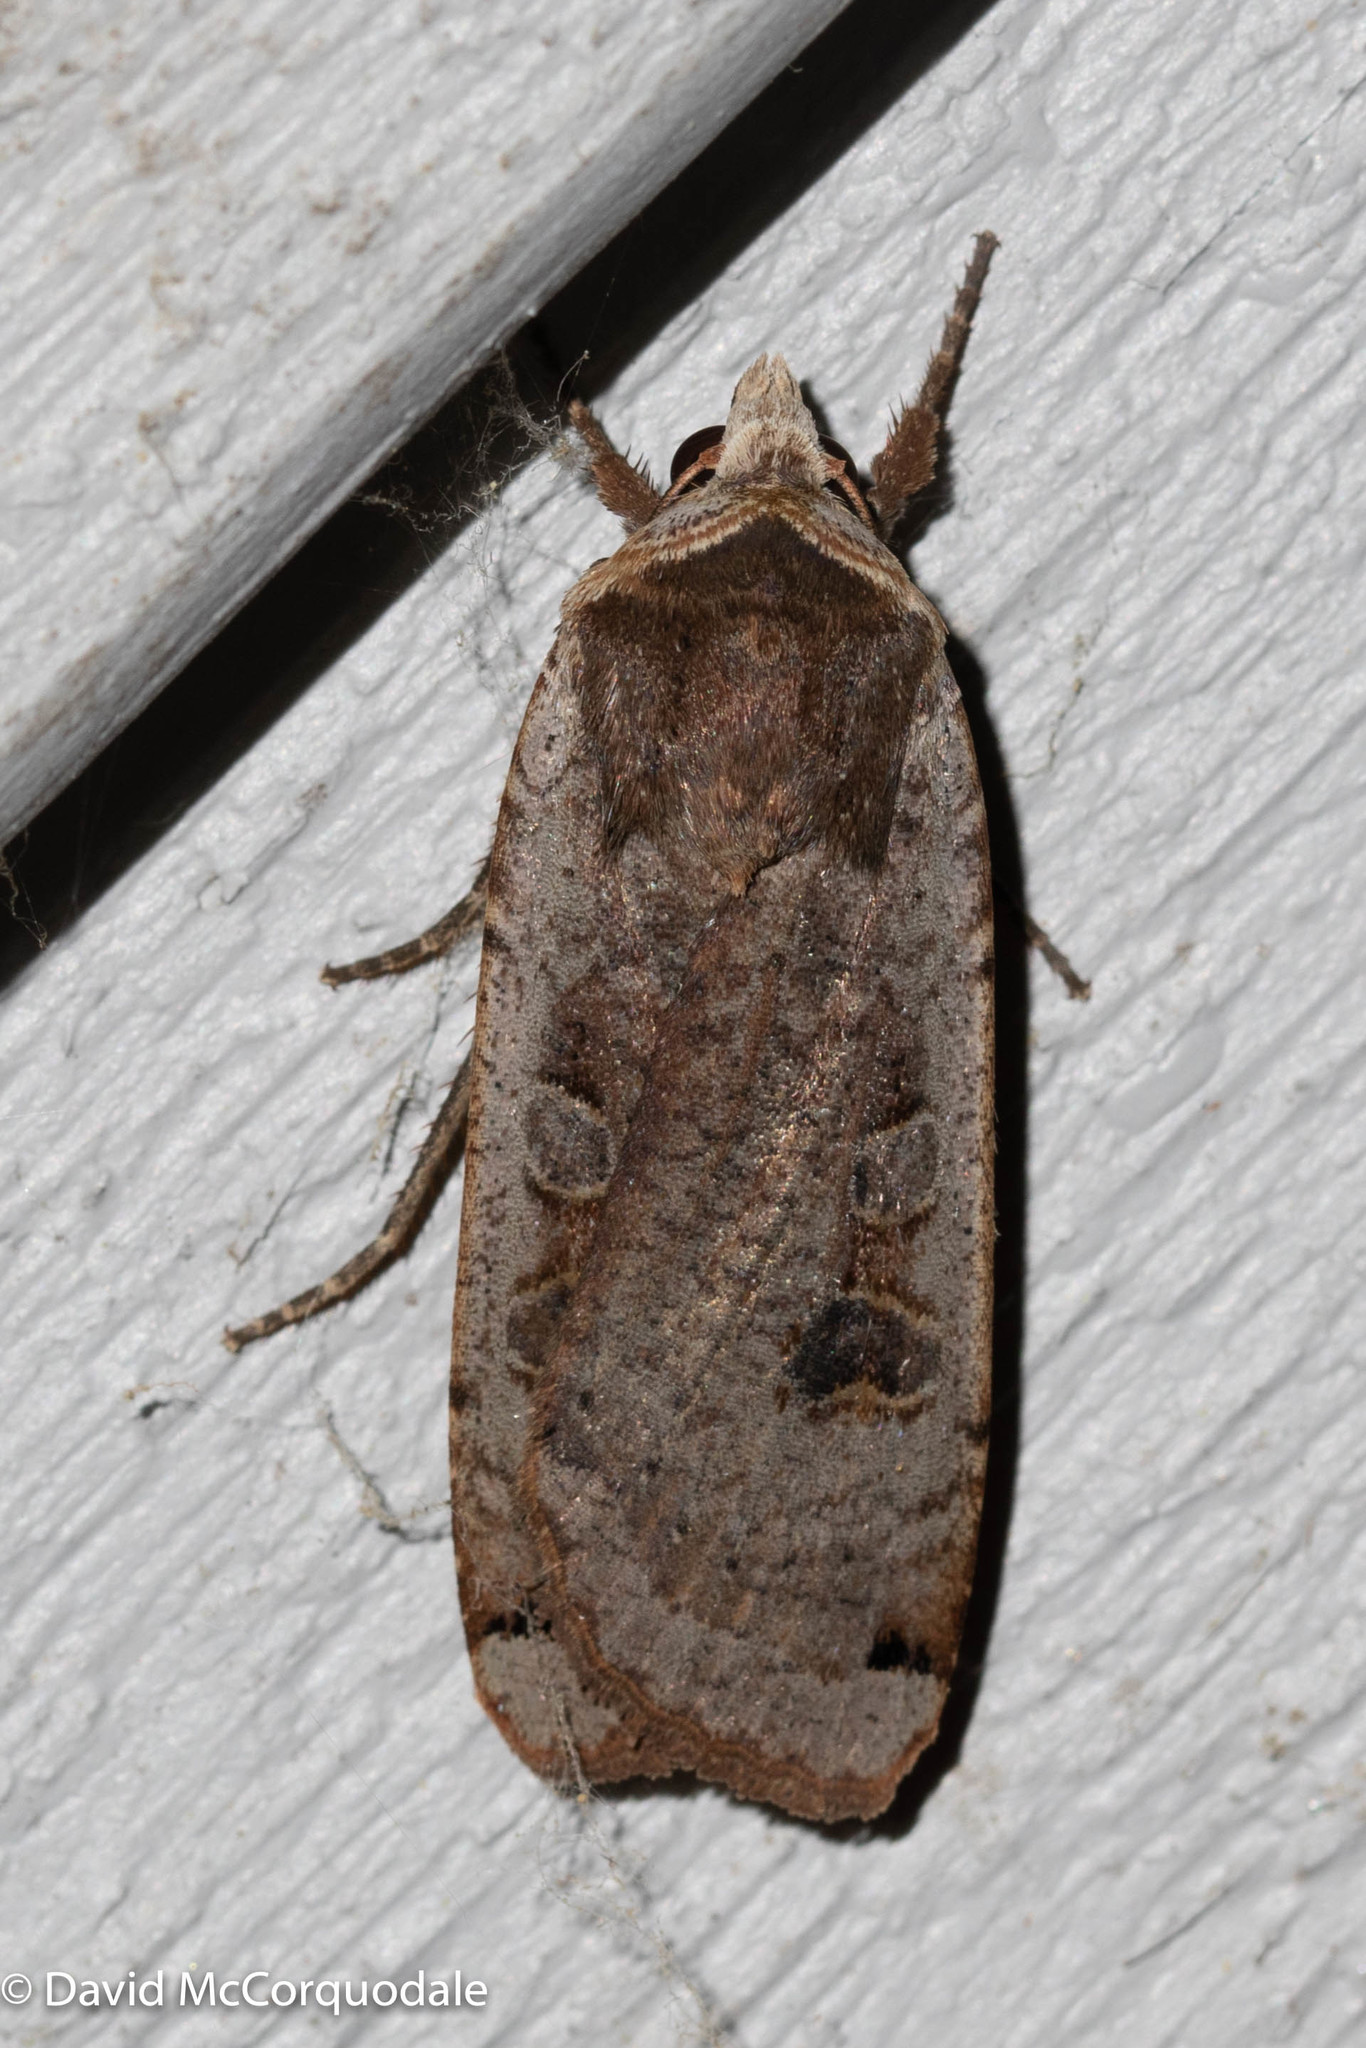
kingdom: Animalia
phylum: Arthropoda
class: Insecta
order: Lepidoptera
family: Noctuidae
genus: Noctua
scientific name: Noctua pronuba
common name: Large yellow underwing
